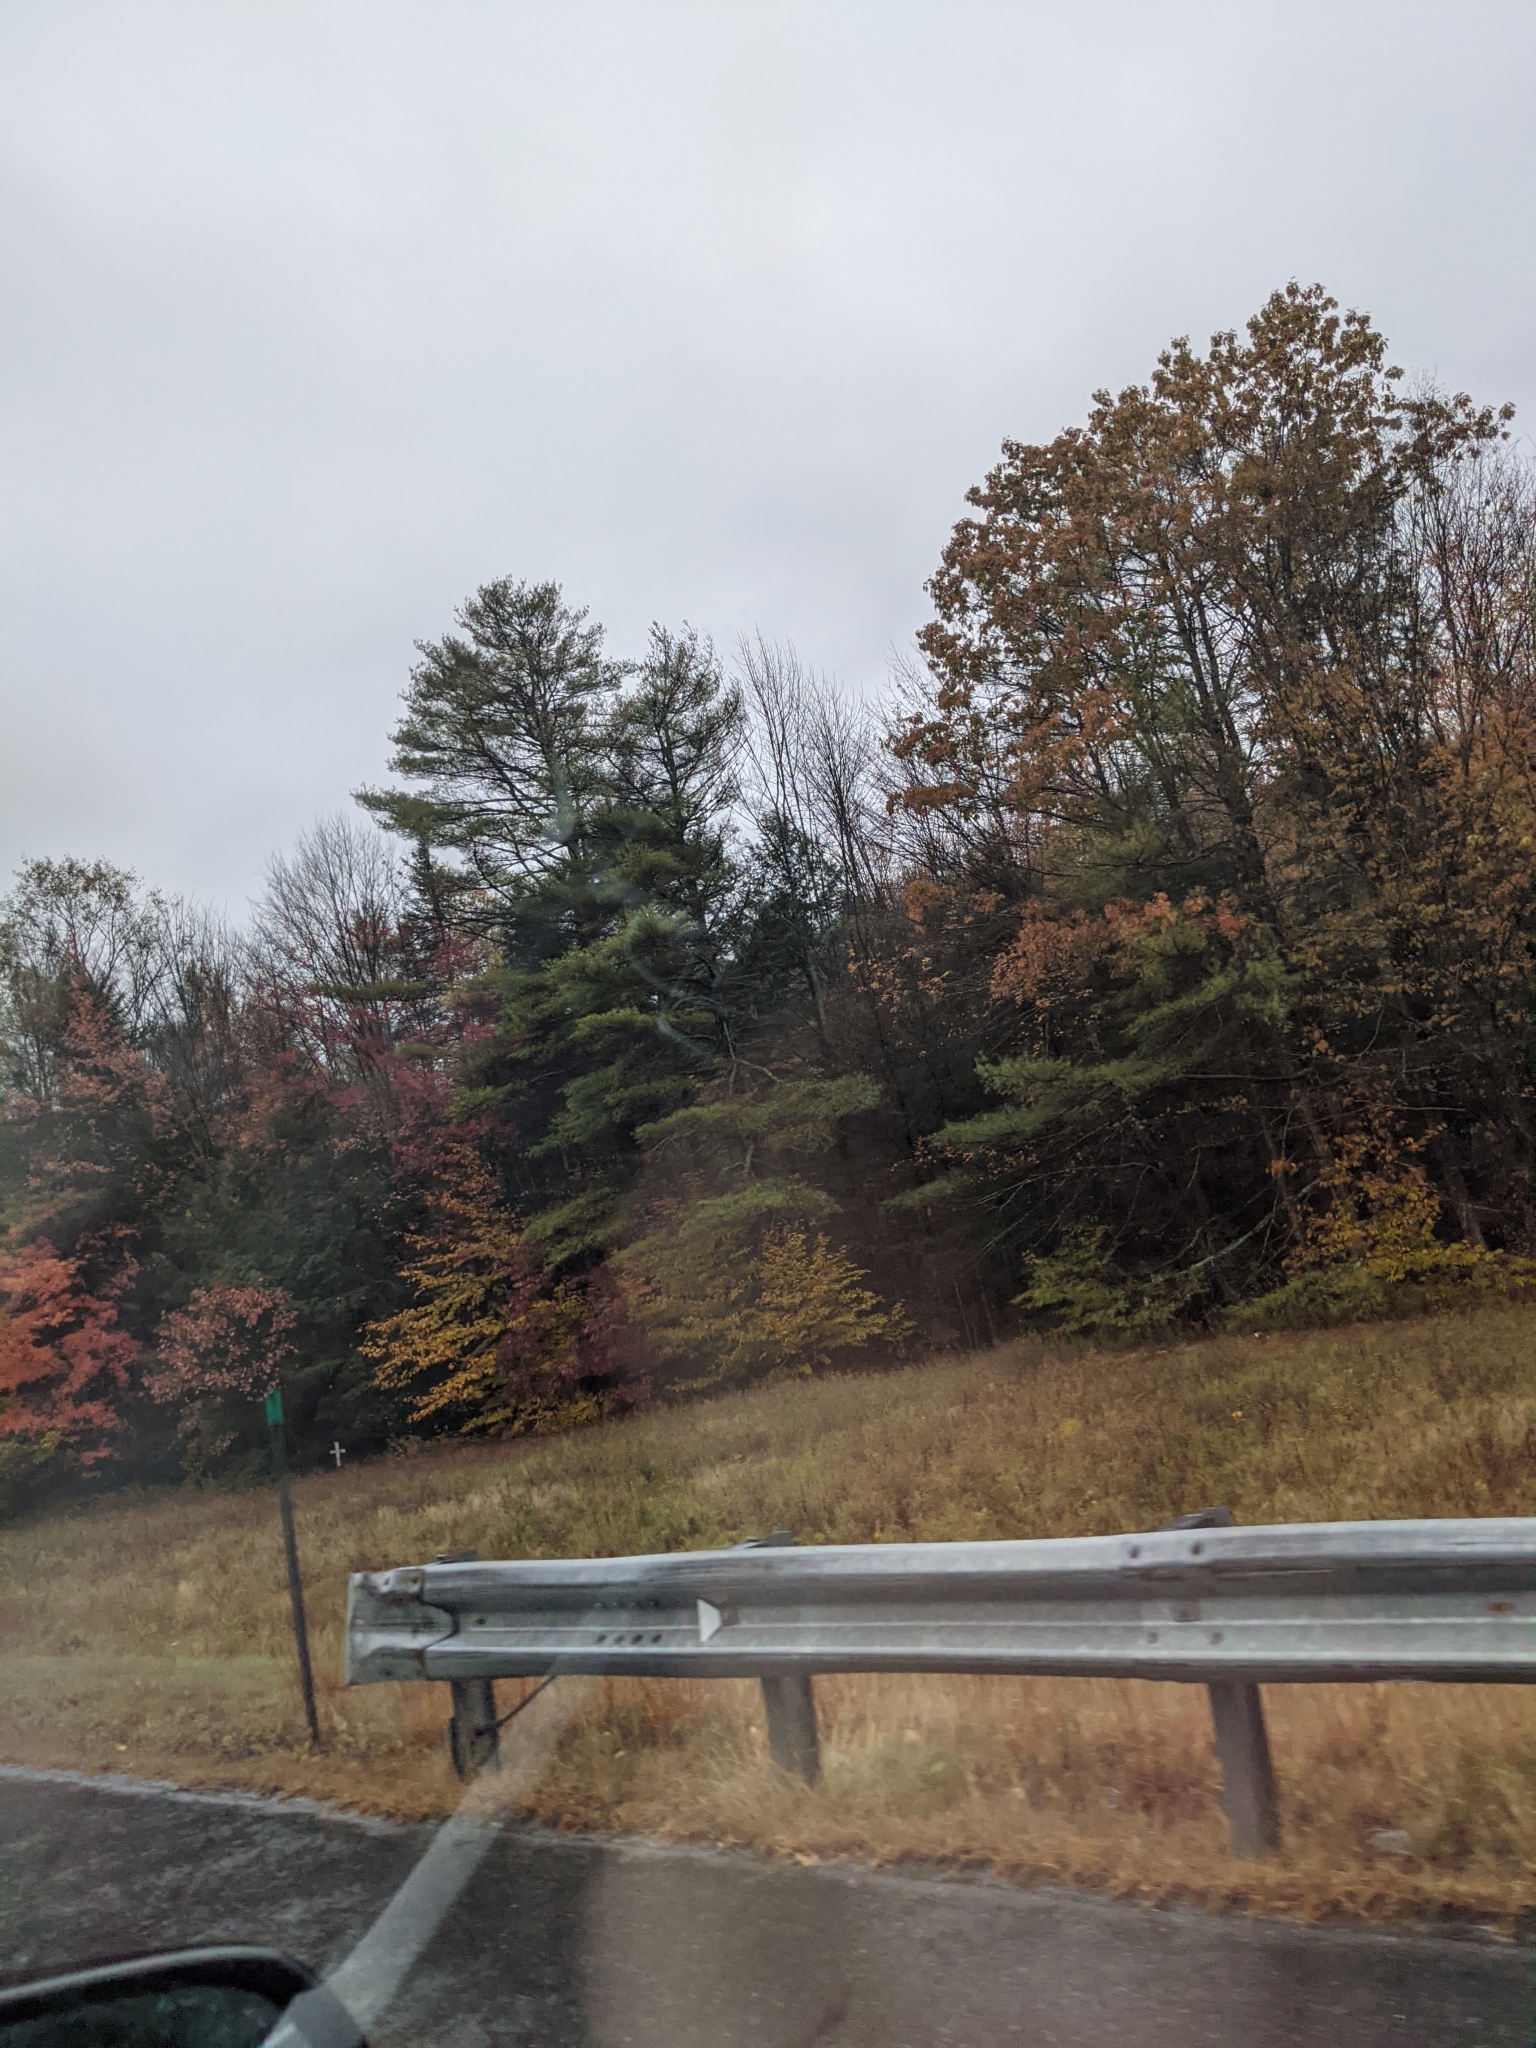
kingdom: Plantae
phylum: Tracheophyta
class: Pinopsida
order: Pinales
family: Pinaceae
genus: Pinus
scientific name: Pinus strobus
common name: Weymouth pine
